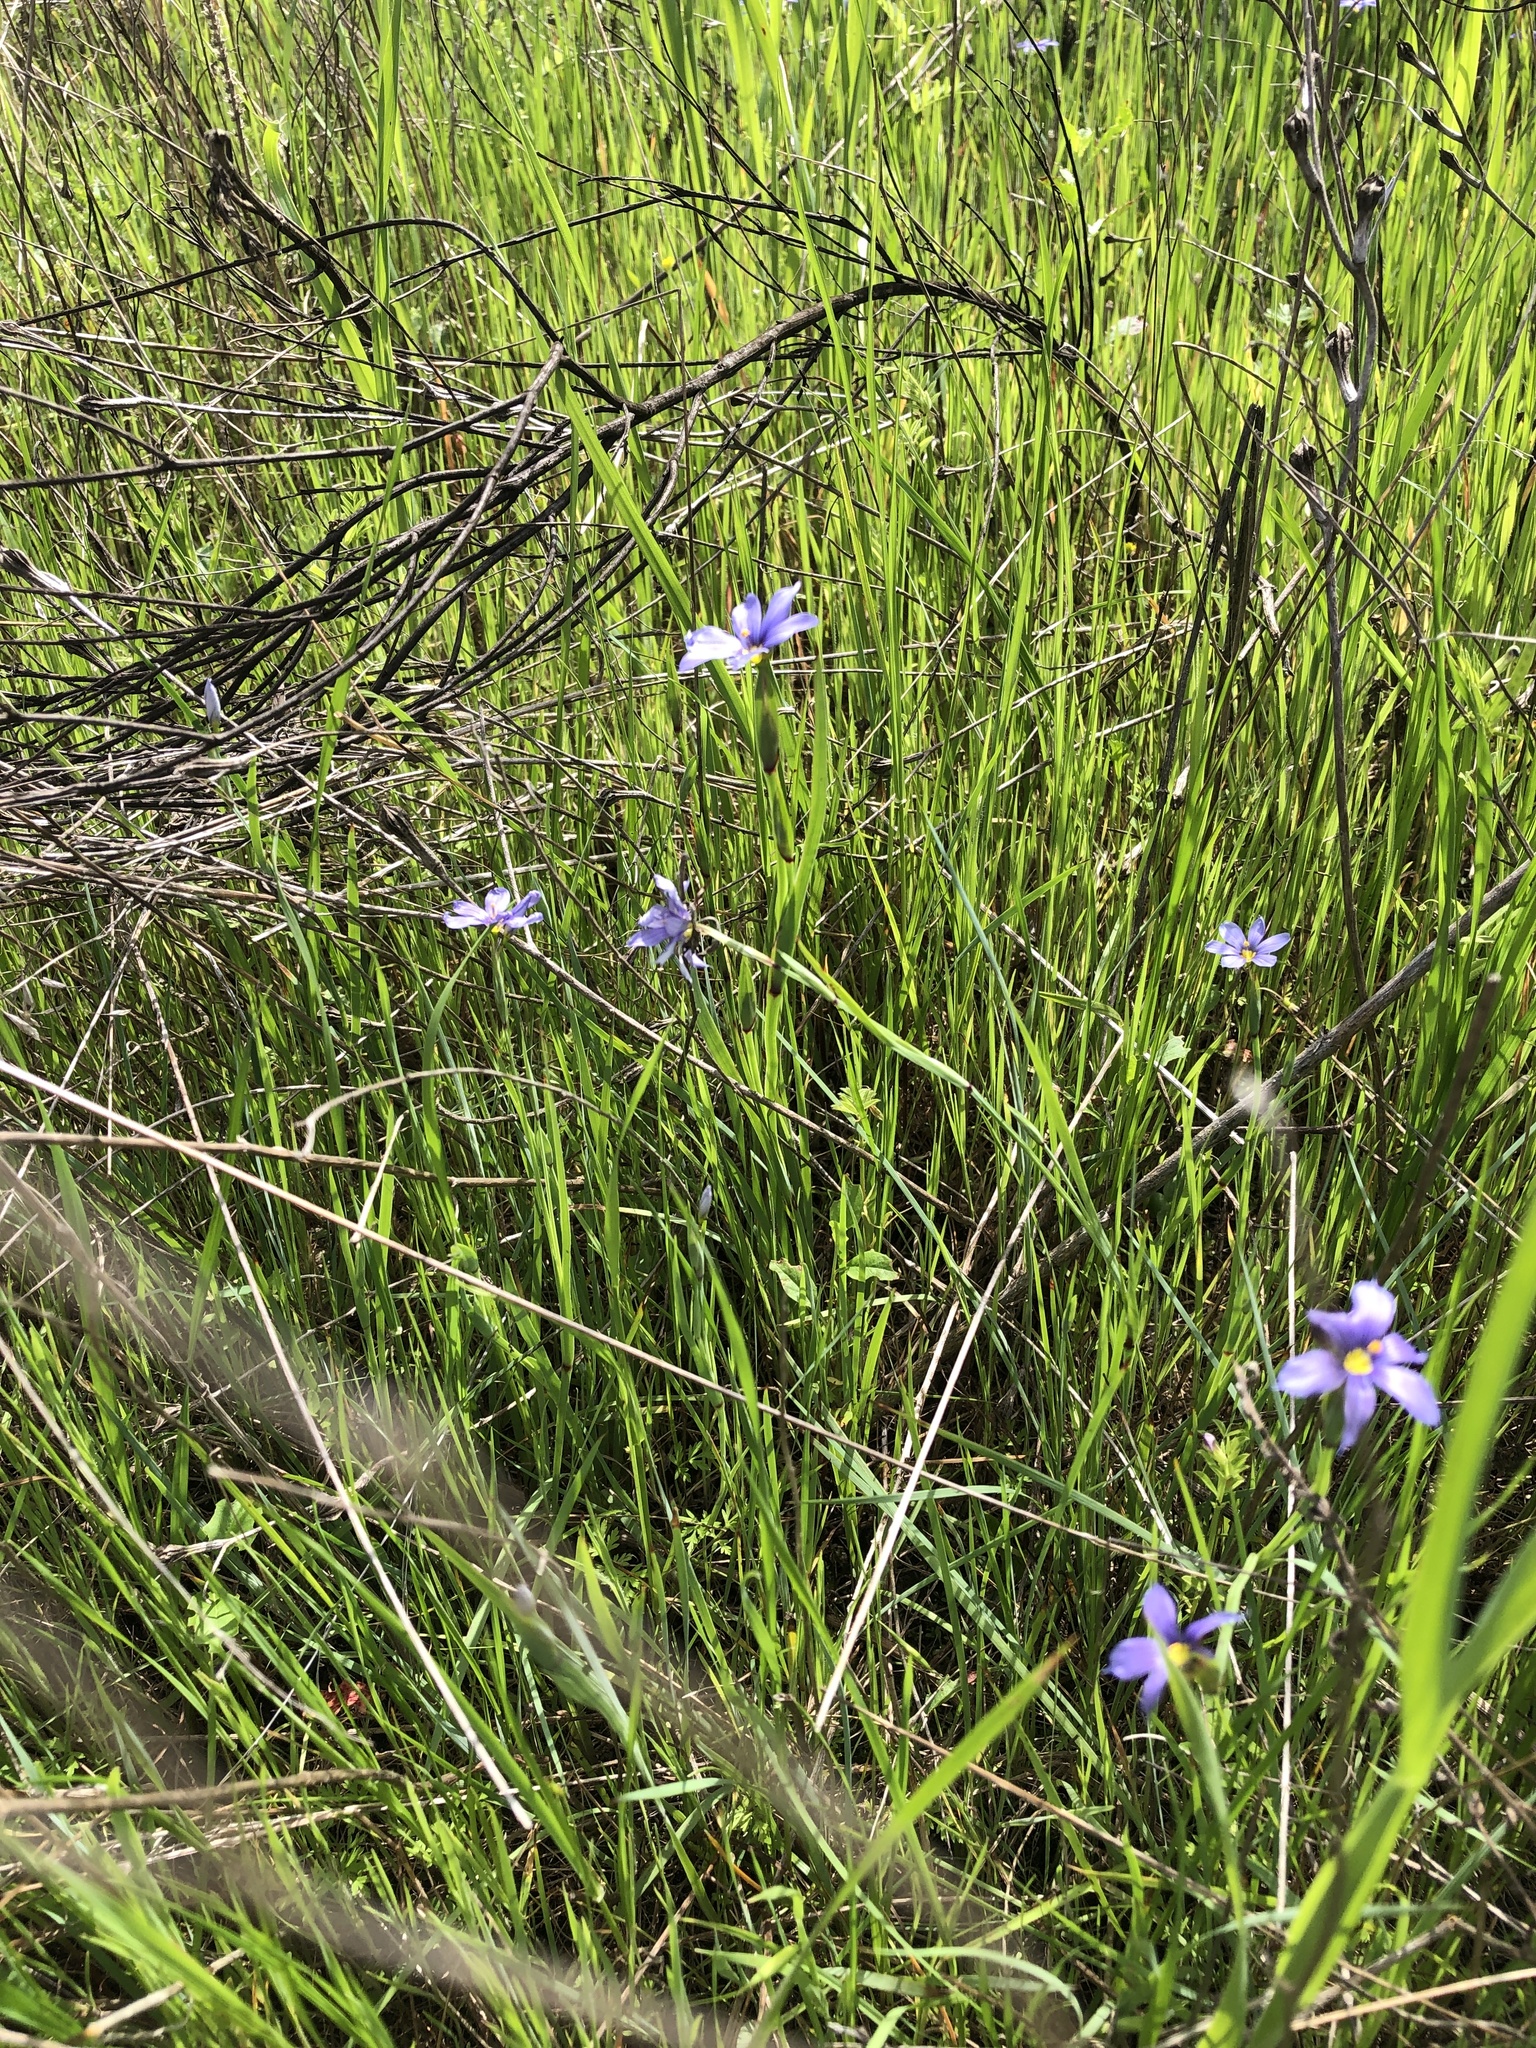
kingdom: Plantae
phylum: Tracheophyta
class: Liliopsida
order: Asparagales
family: Iridaceae
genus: Sisyrinchium
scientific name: Sisyrinchium pruinosum
